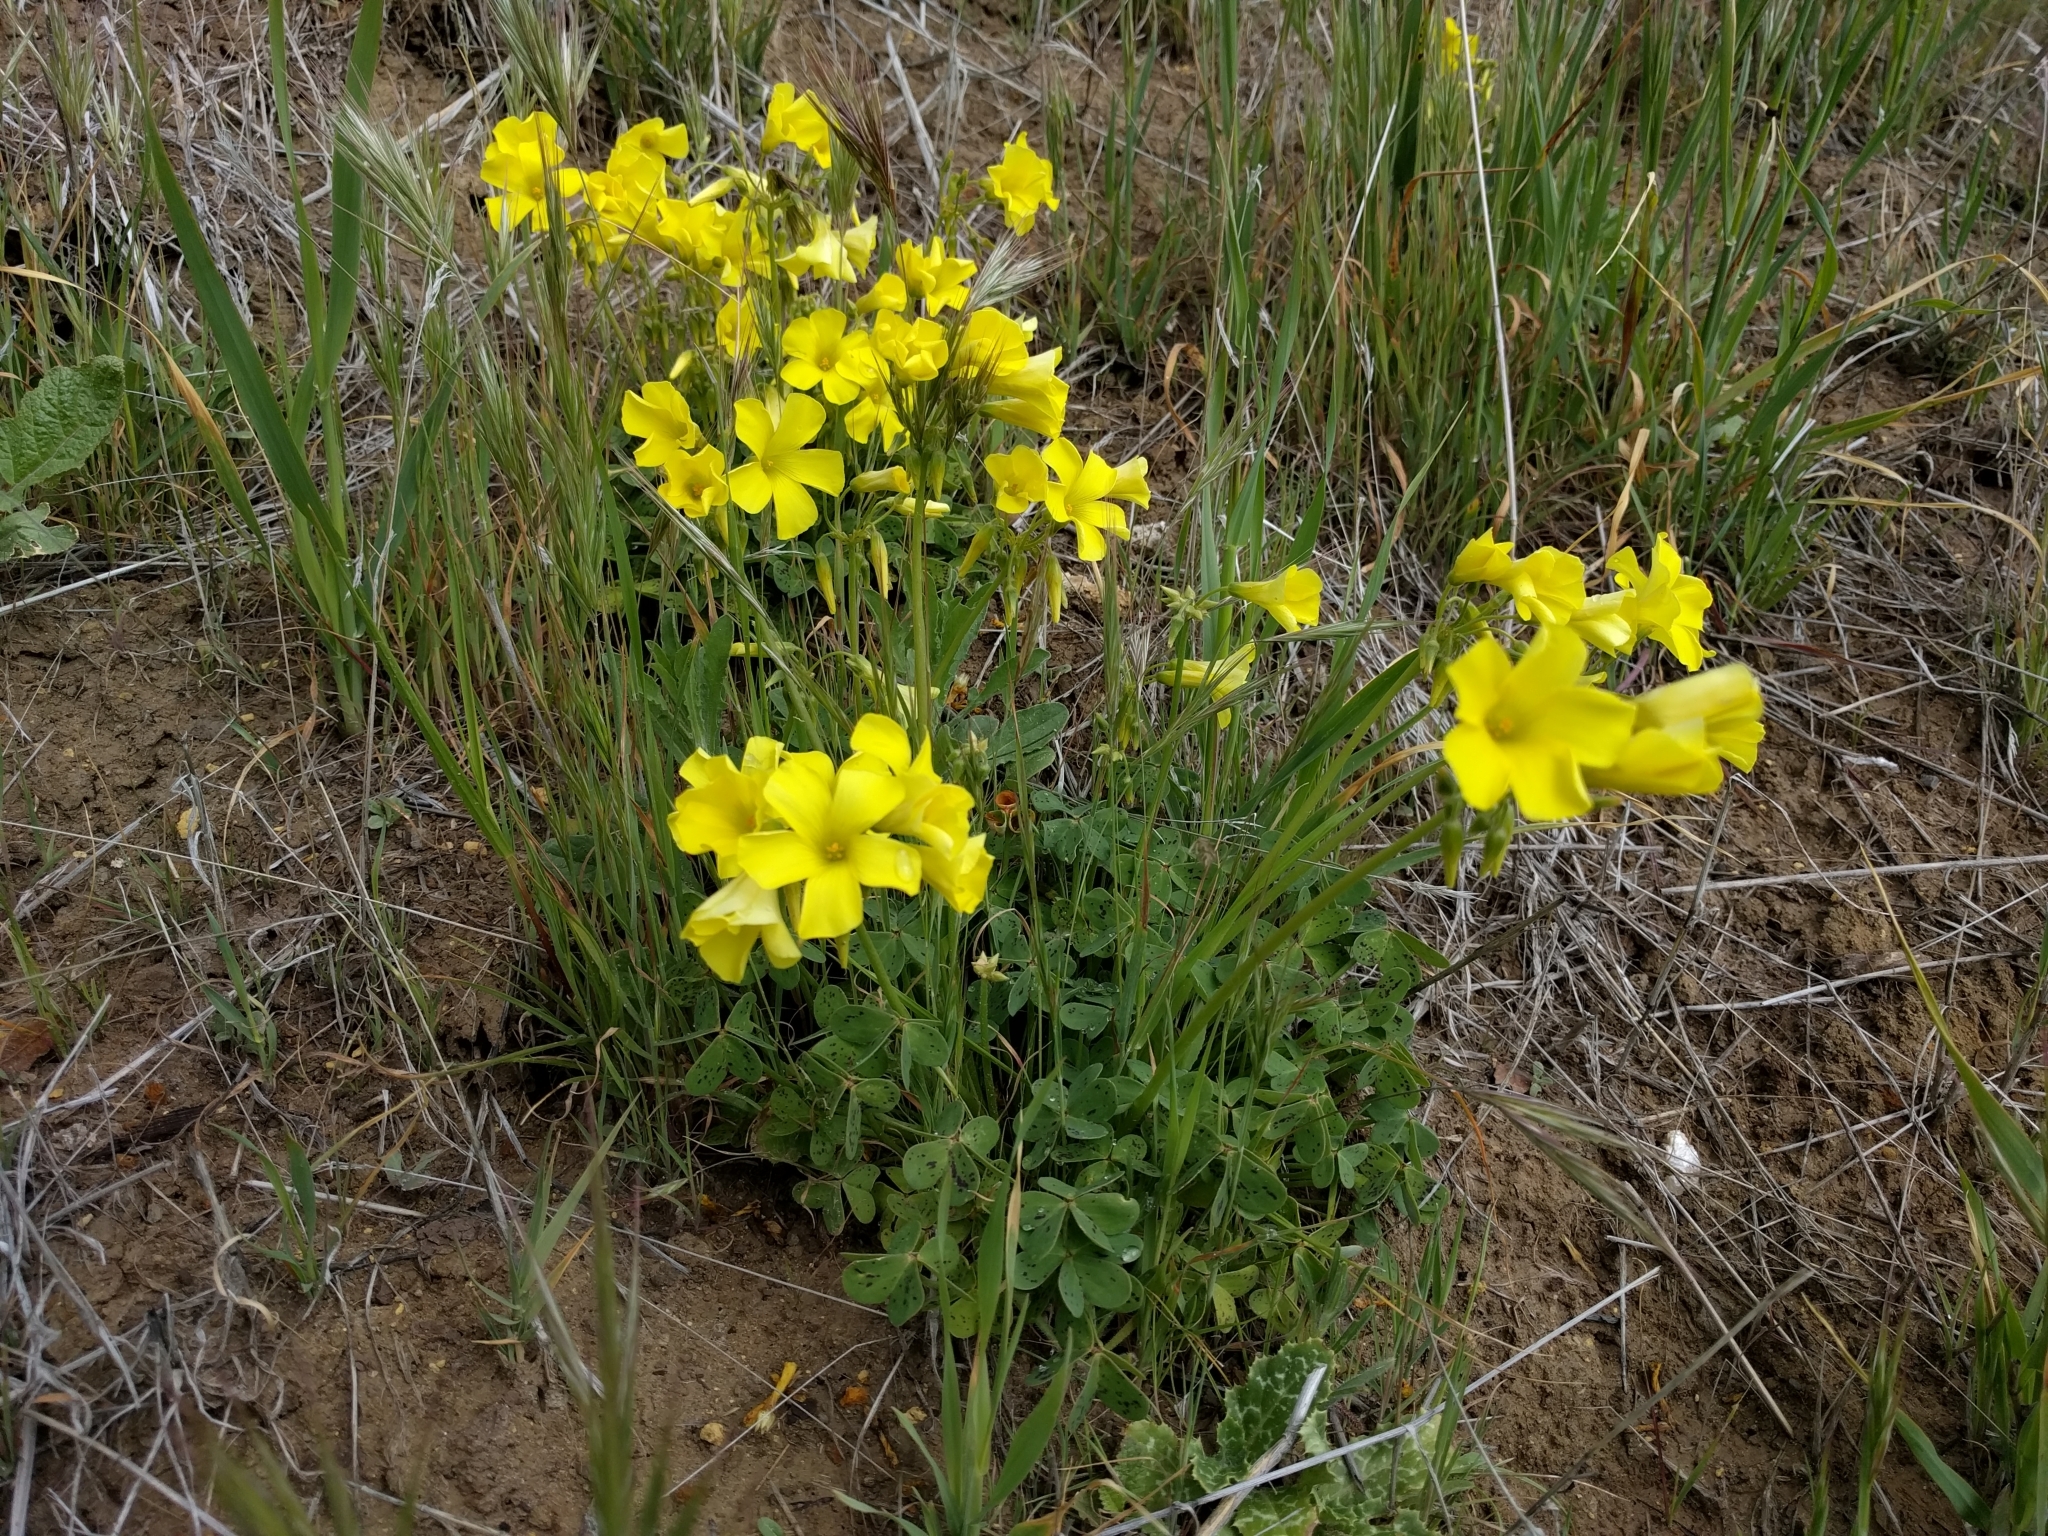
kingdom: Plantae
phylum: Tracheophyta
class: Magnoliopsida
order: Oxalidales
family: Oxalidaceae
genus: Oxalis
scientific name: Oxalis pes-caprae
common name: Bermuda-buttercup
